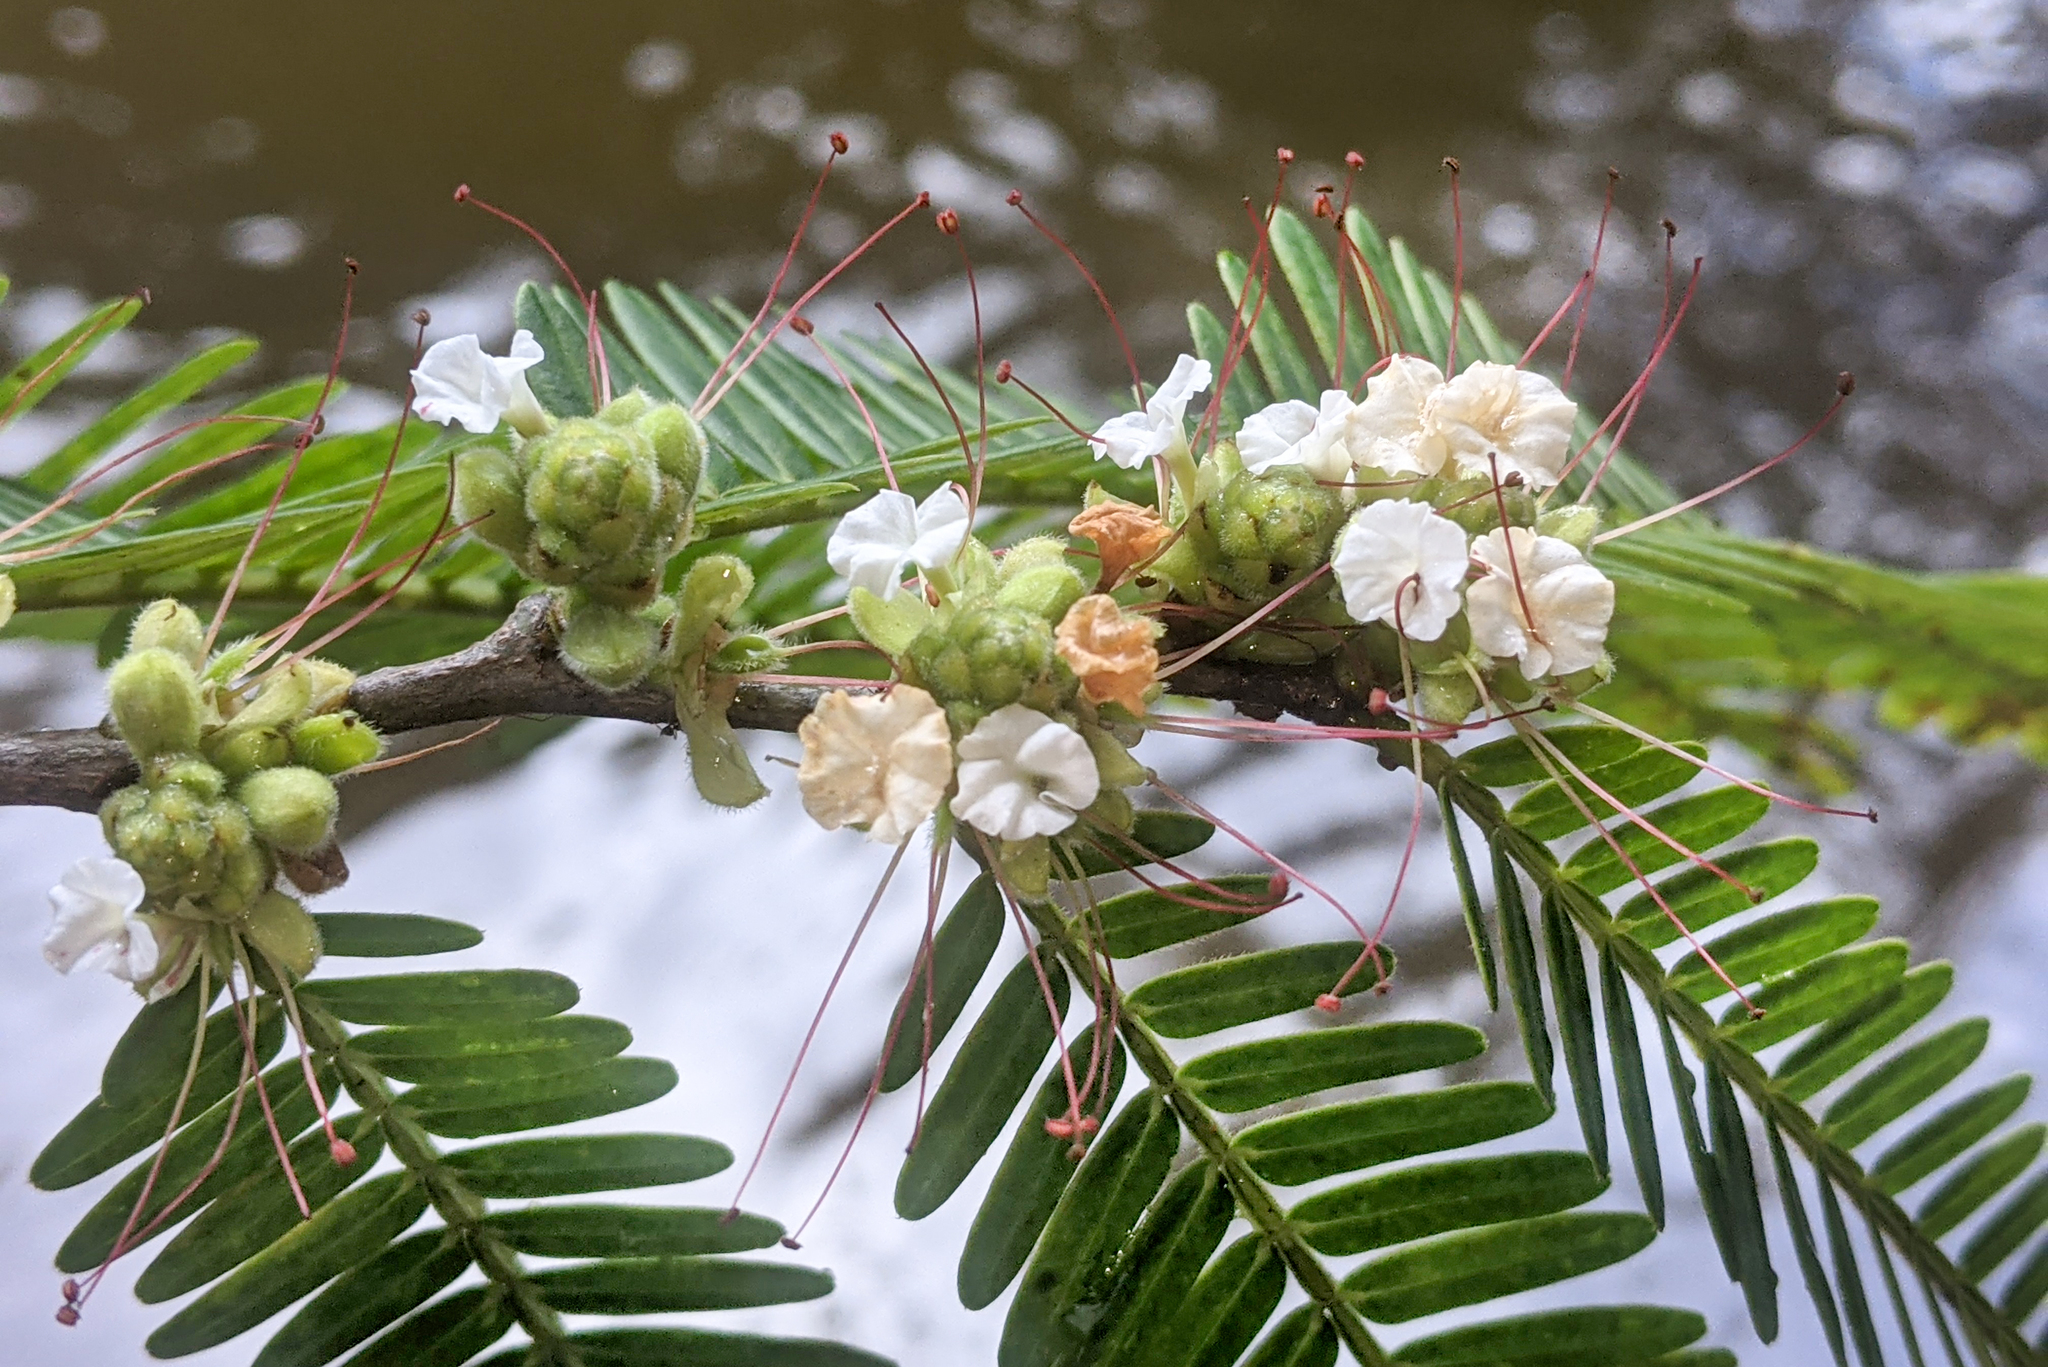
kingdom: Plantae
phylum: Tracheophyta
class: Magnoliopsida
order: Fabales
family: Fabaceae
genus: Macrolobium
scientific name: Macrolobium acaciifolium
